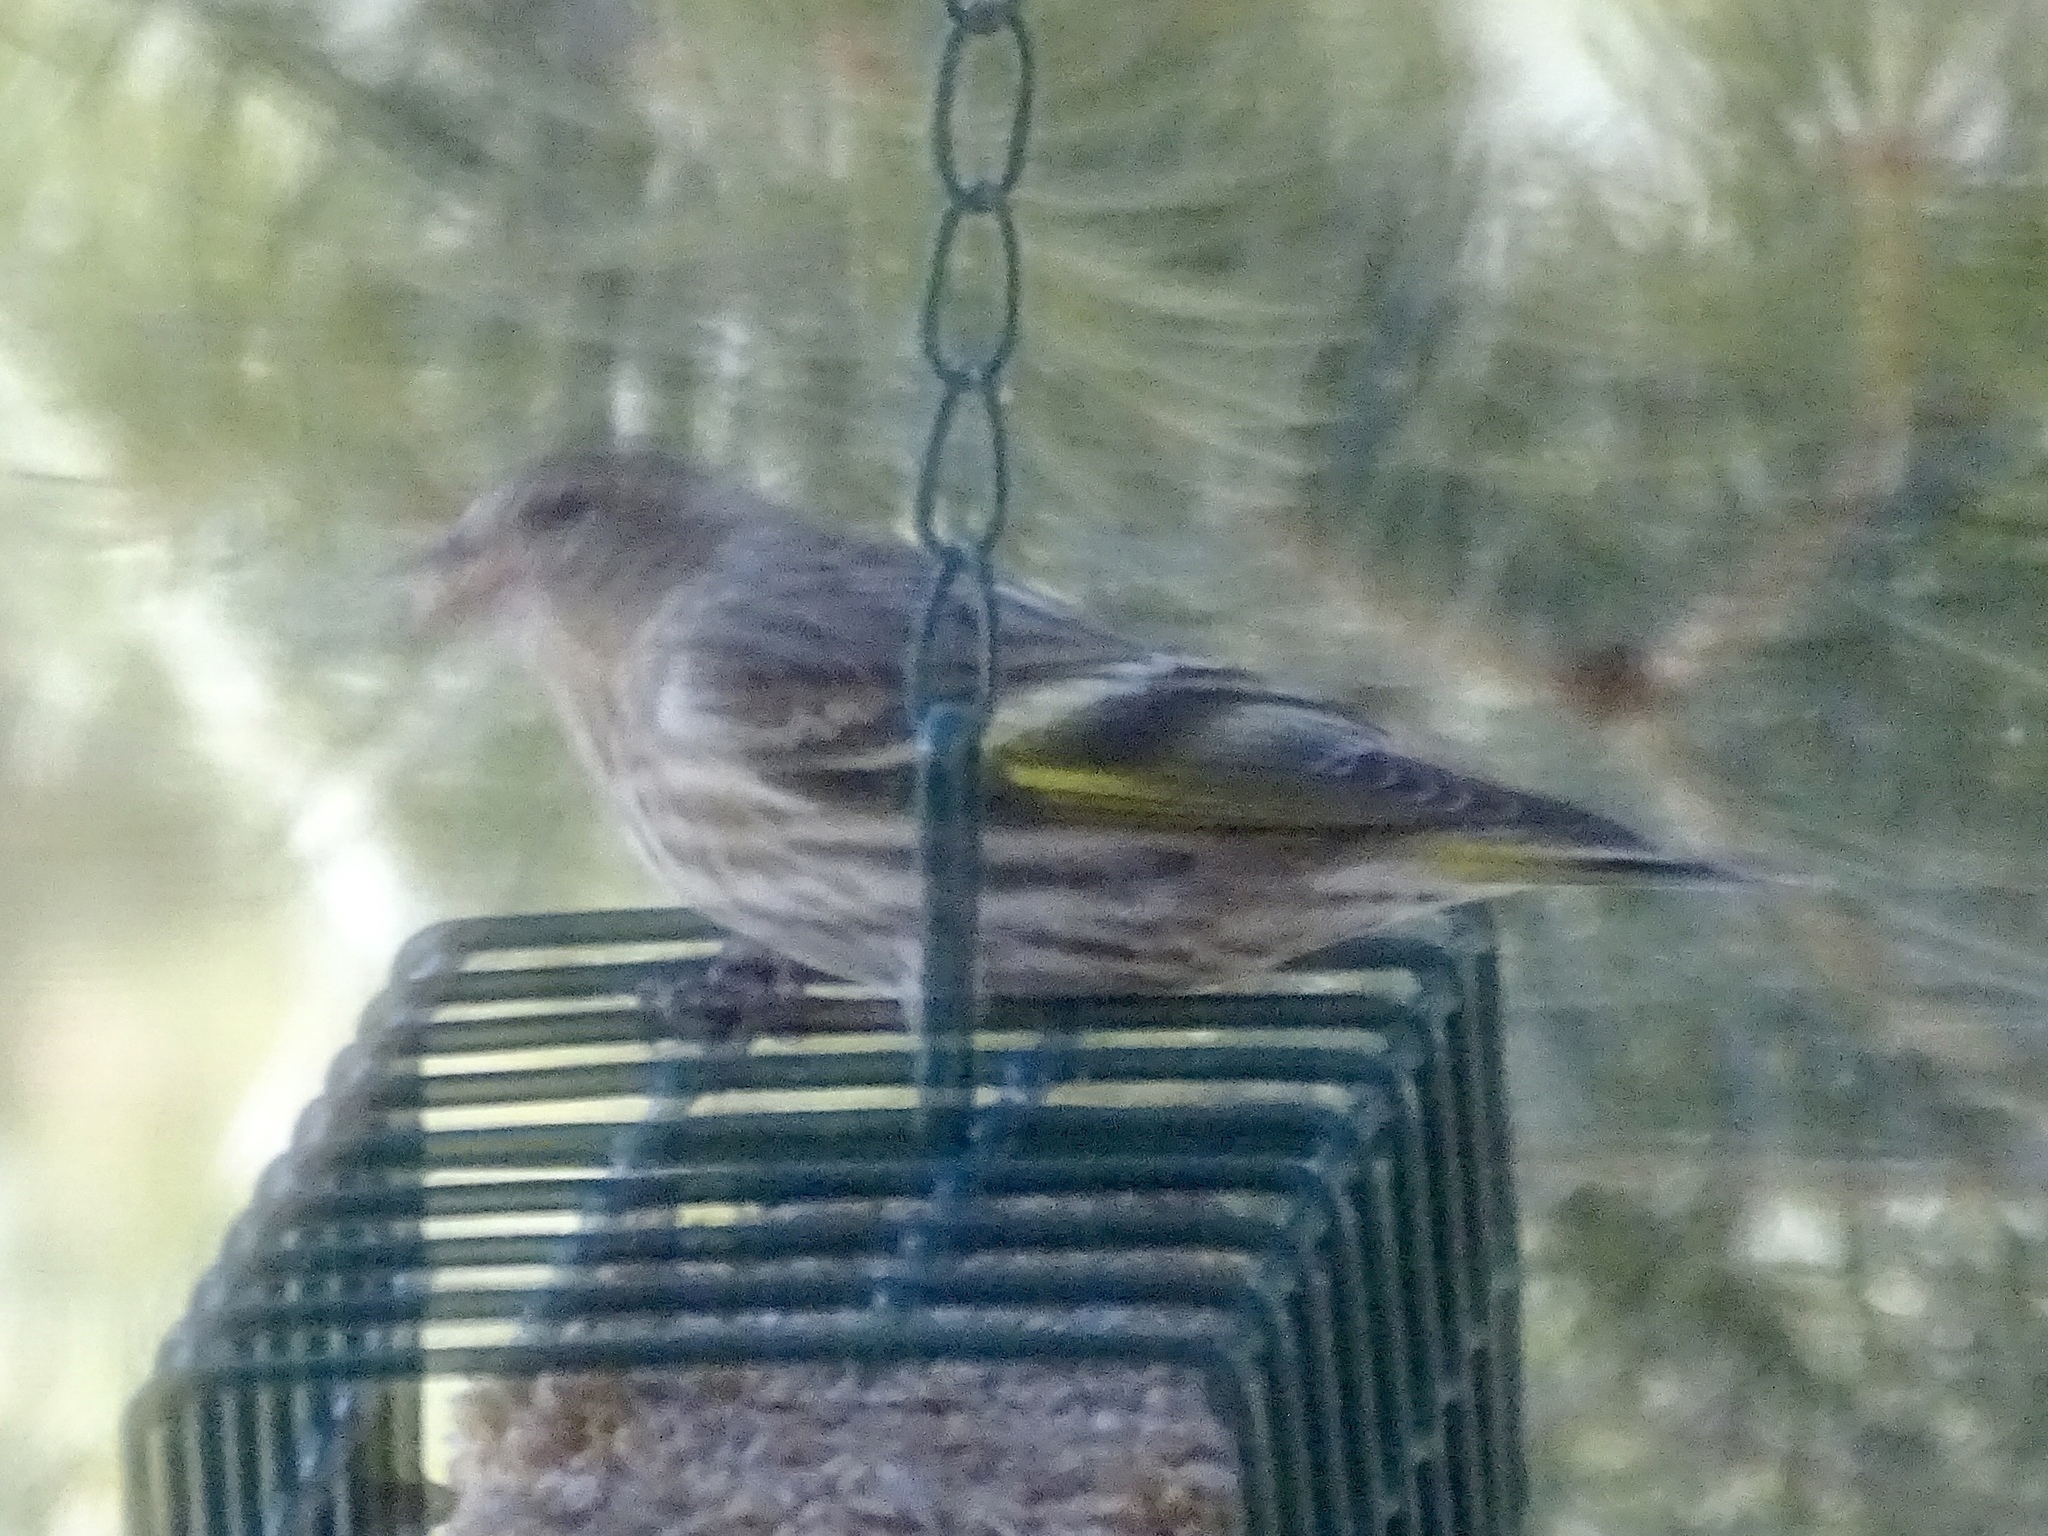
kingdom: Animalia
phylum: Chordata
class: Aves
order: Passeriformes
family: Fringillidae
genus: Spinus
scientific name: Spinus pinus
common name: Pine siskin
